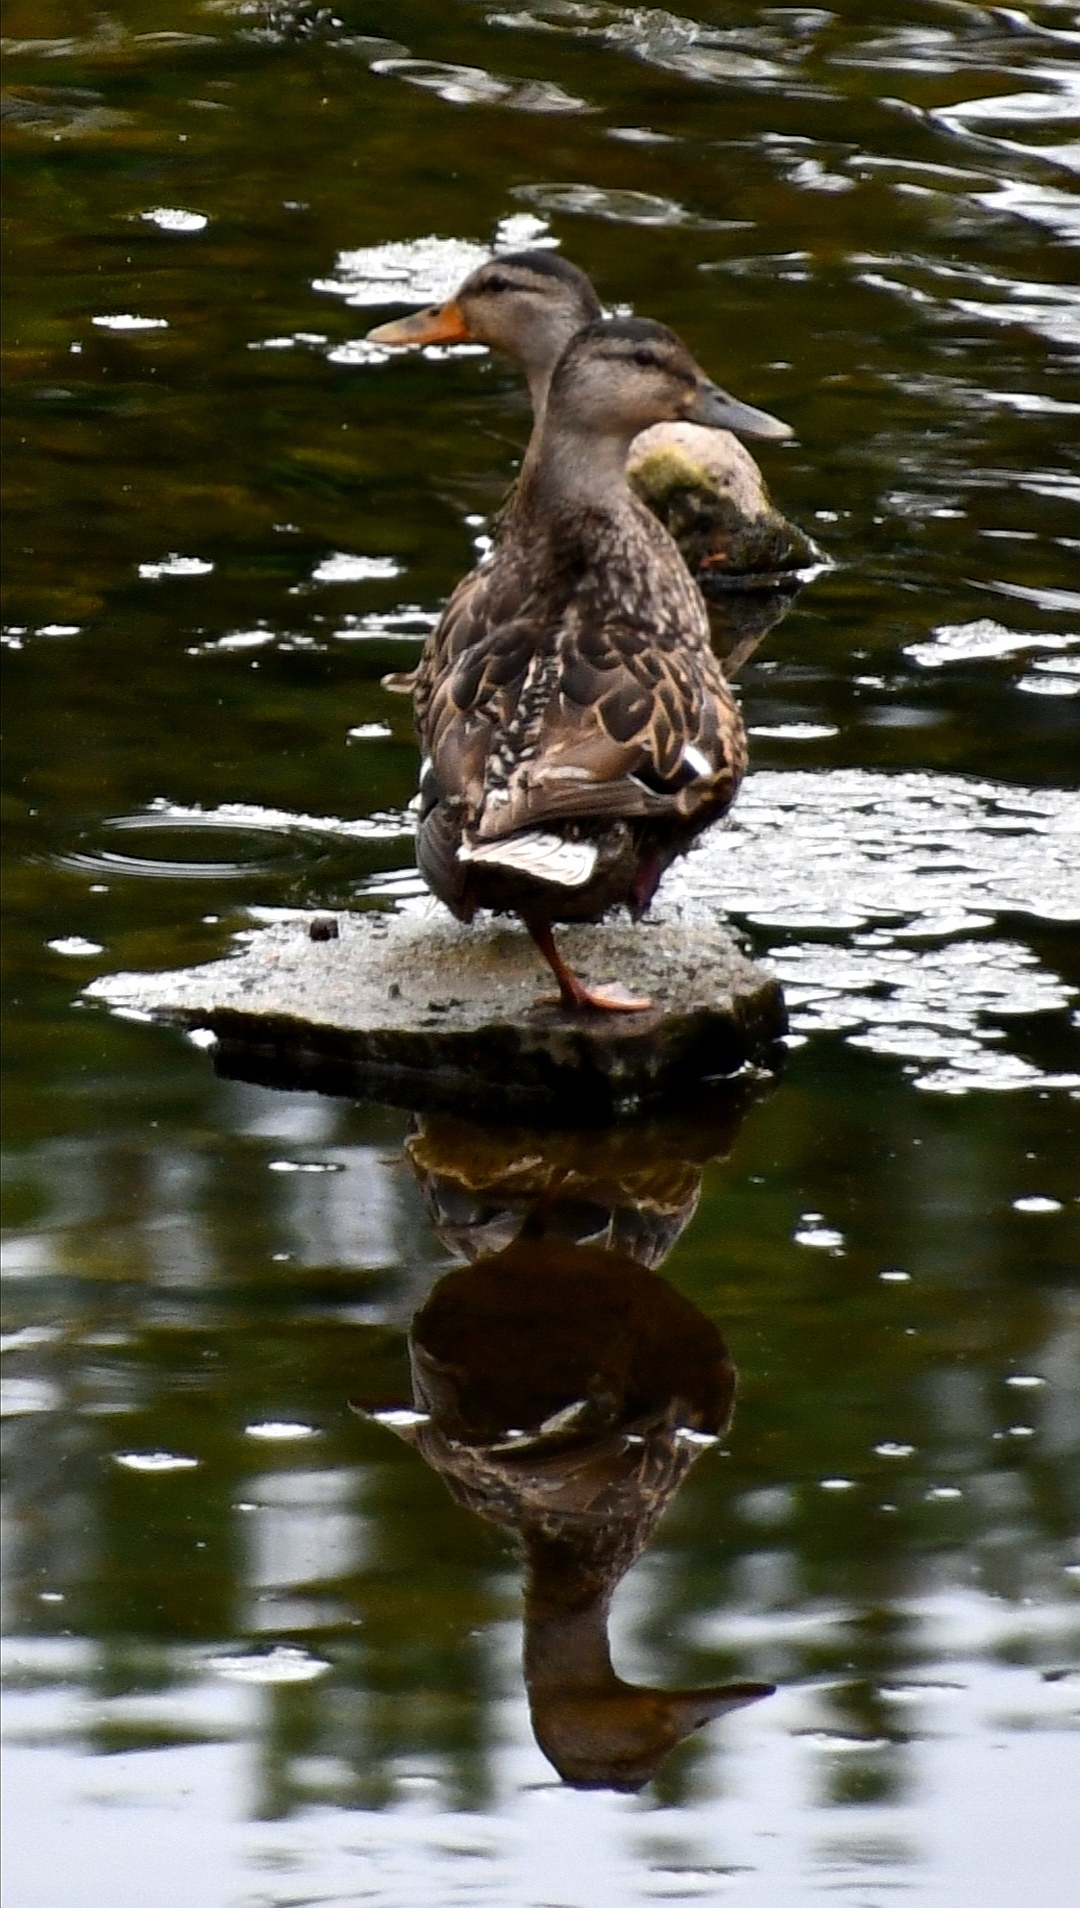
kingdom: Animalia
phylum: Chordata
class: Aves
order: Anseriformes
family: Anatidae
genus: Anas
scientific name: Anas platyrhynchos
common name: Mallard
